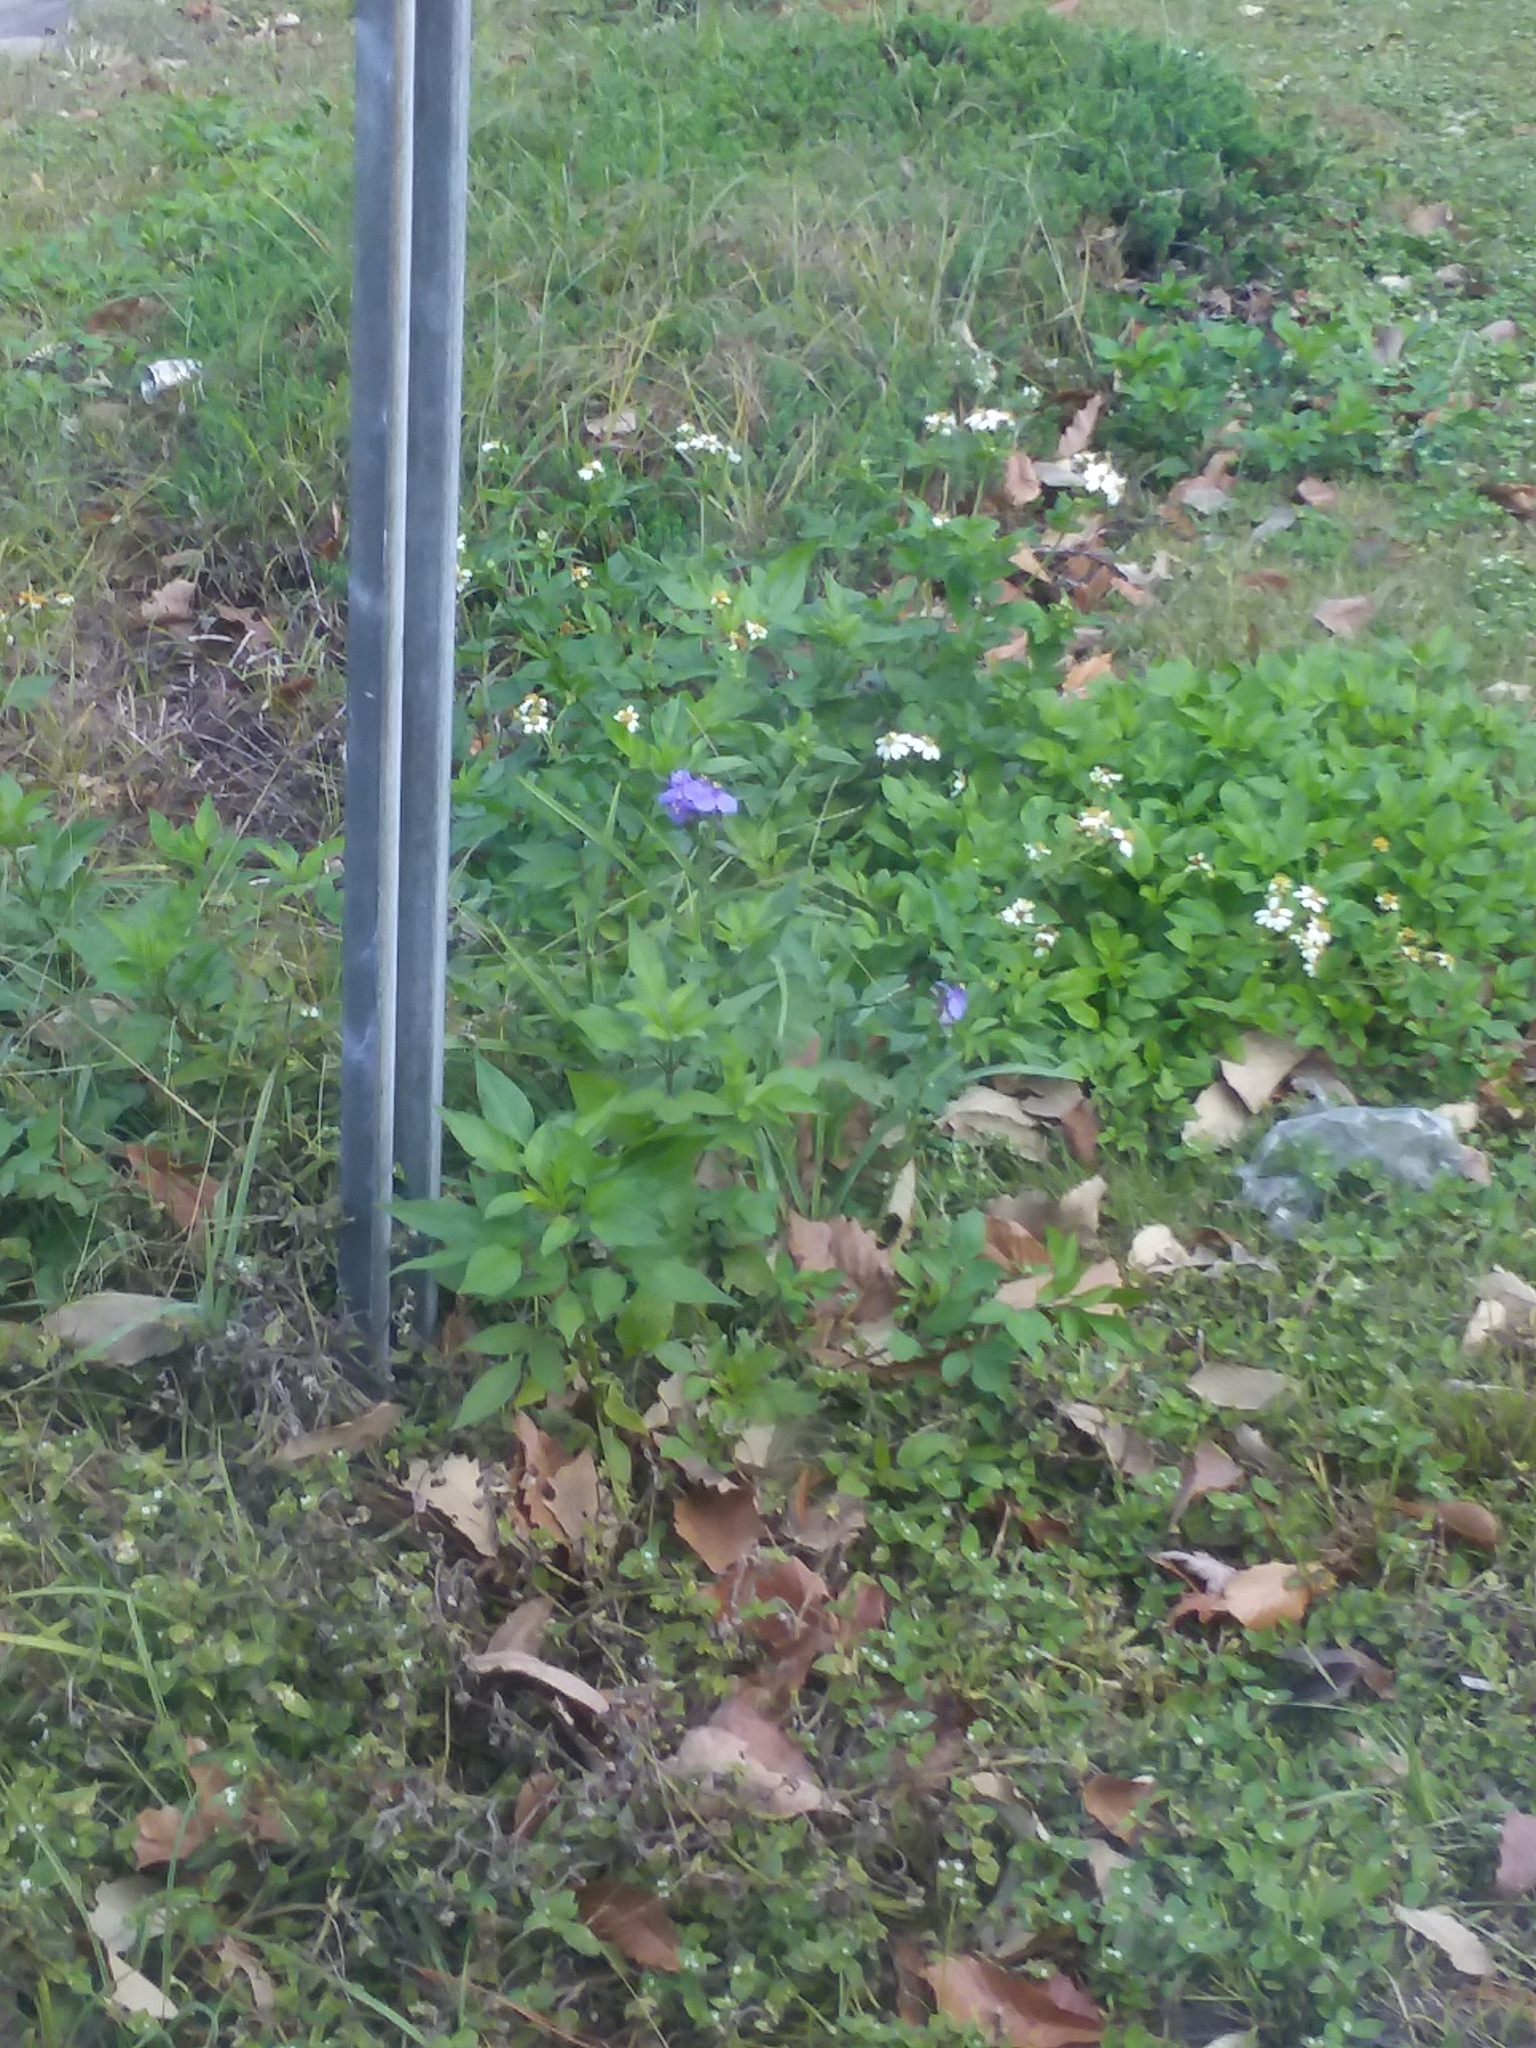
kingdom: Plantae
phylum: Tracheophyta
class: Magnoliopsida
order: Asterales
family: Asteraceae
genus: Bidens
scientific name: Bidens alba
